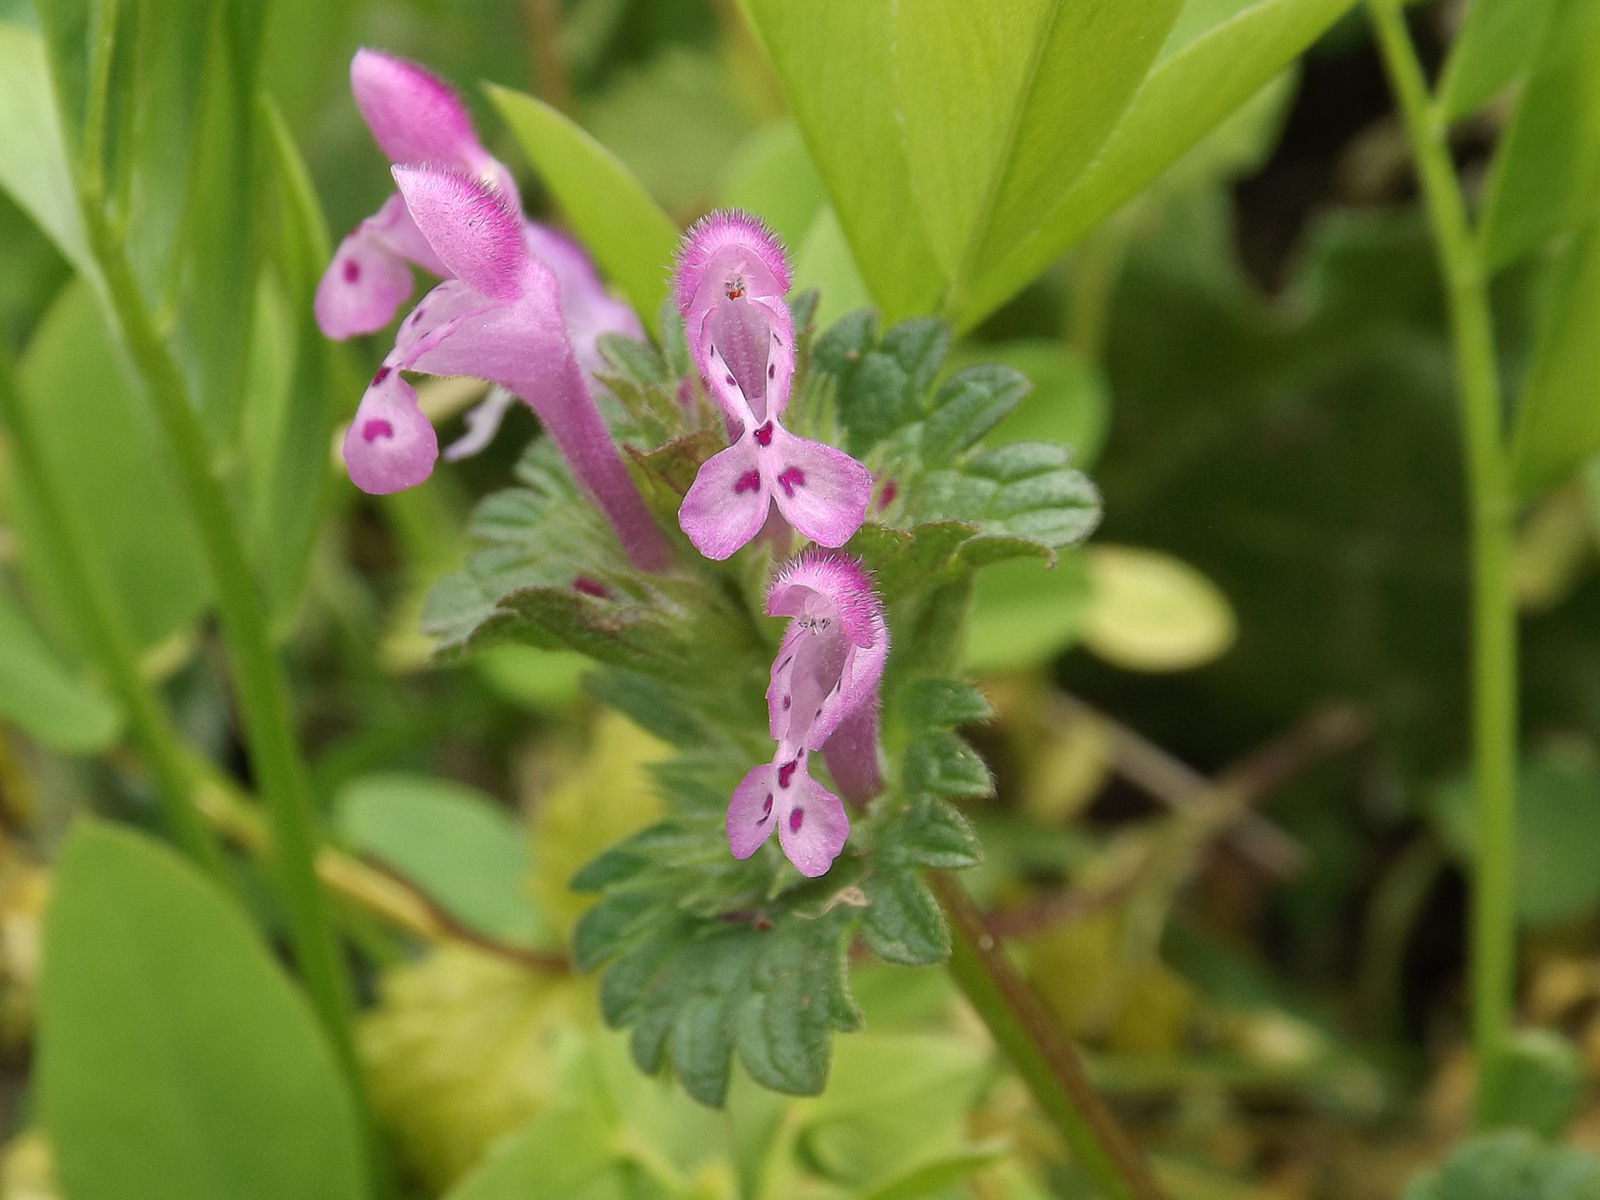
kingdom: Plantae
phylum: Tracheophyta
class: Magnoliopsida
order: Lamiales
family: Lamiaceae
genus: Lamium
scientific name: Lamium amplexicaule
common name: Henbit dead-nettle
